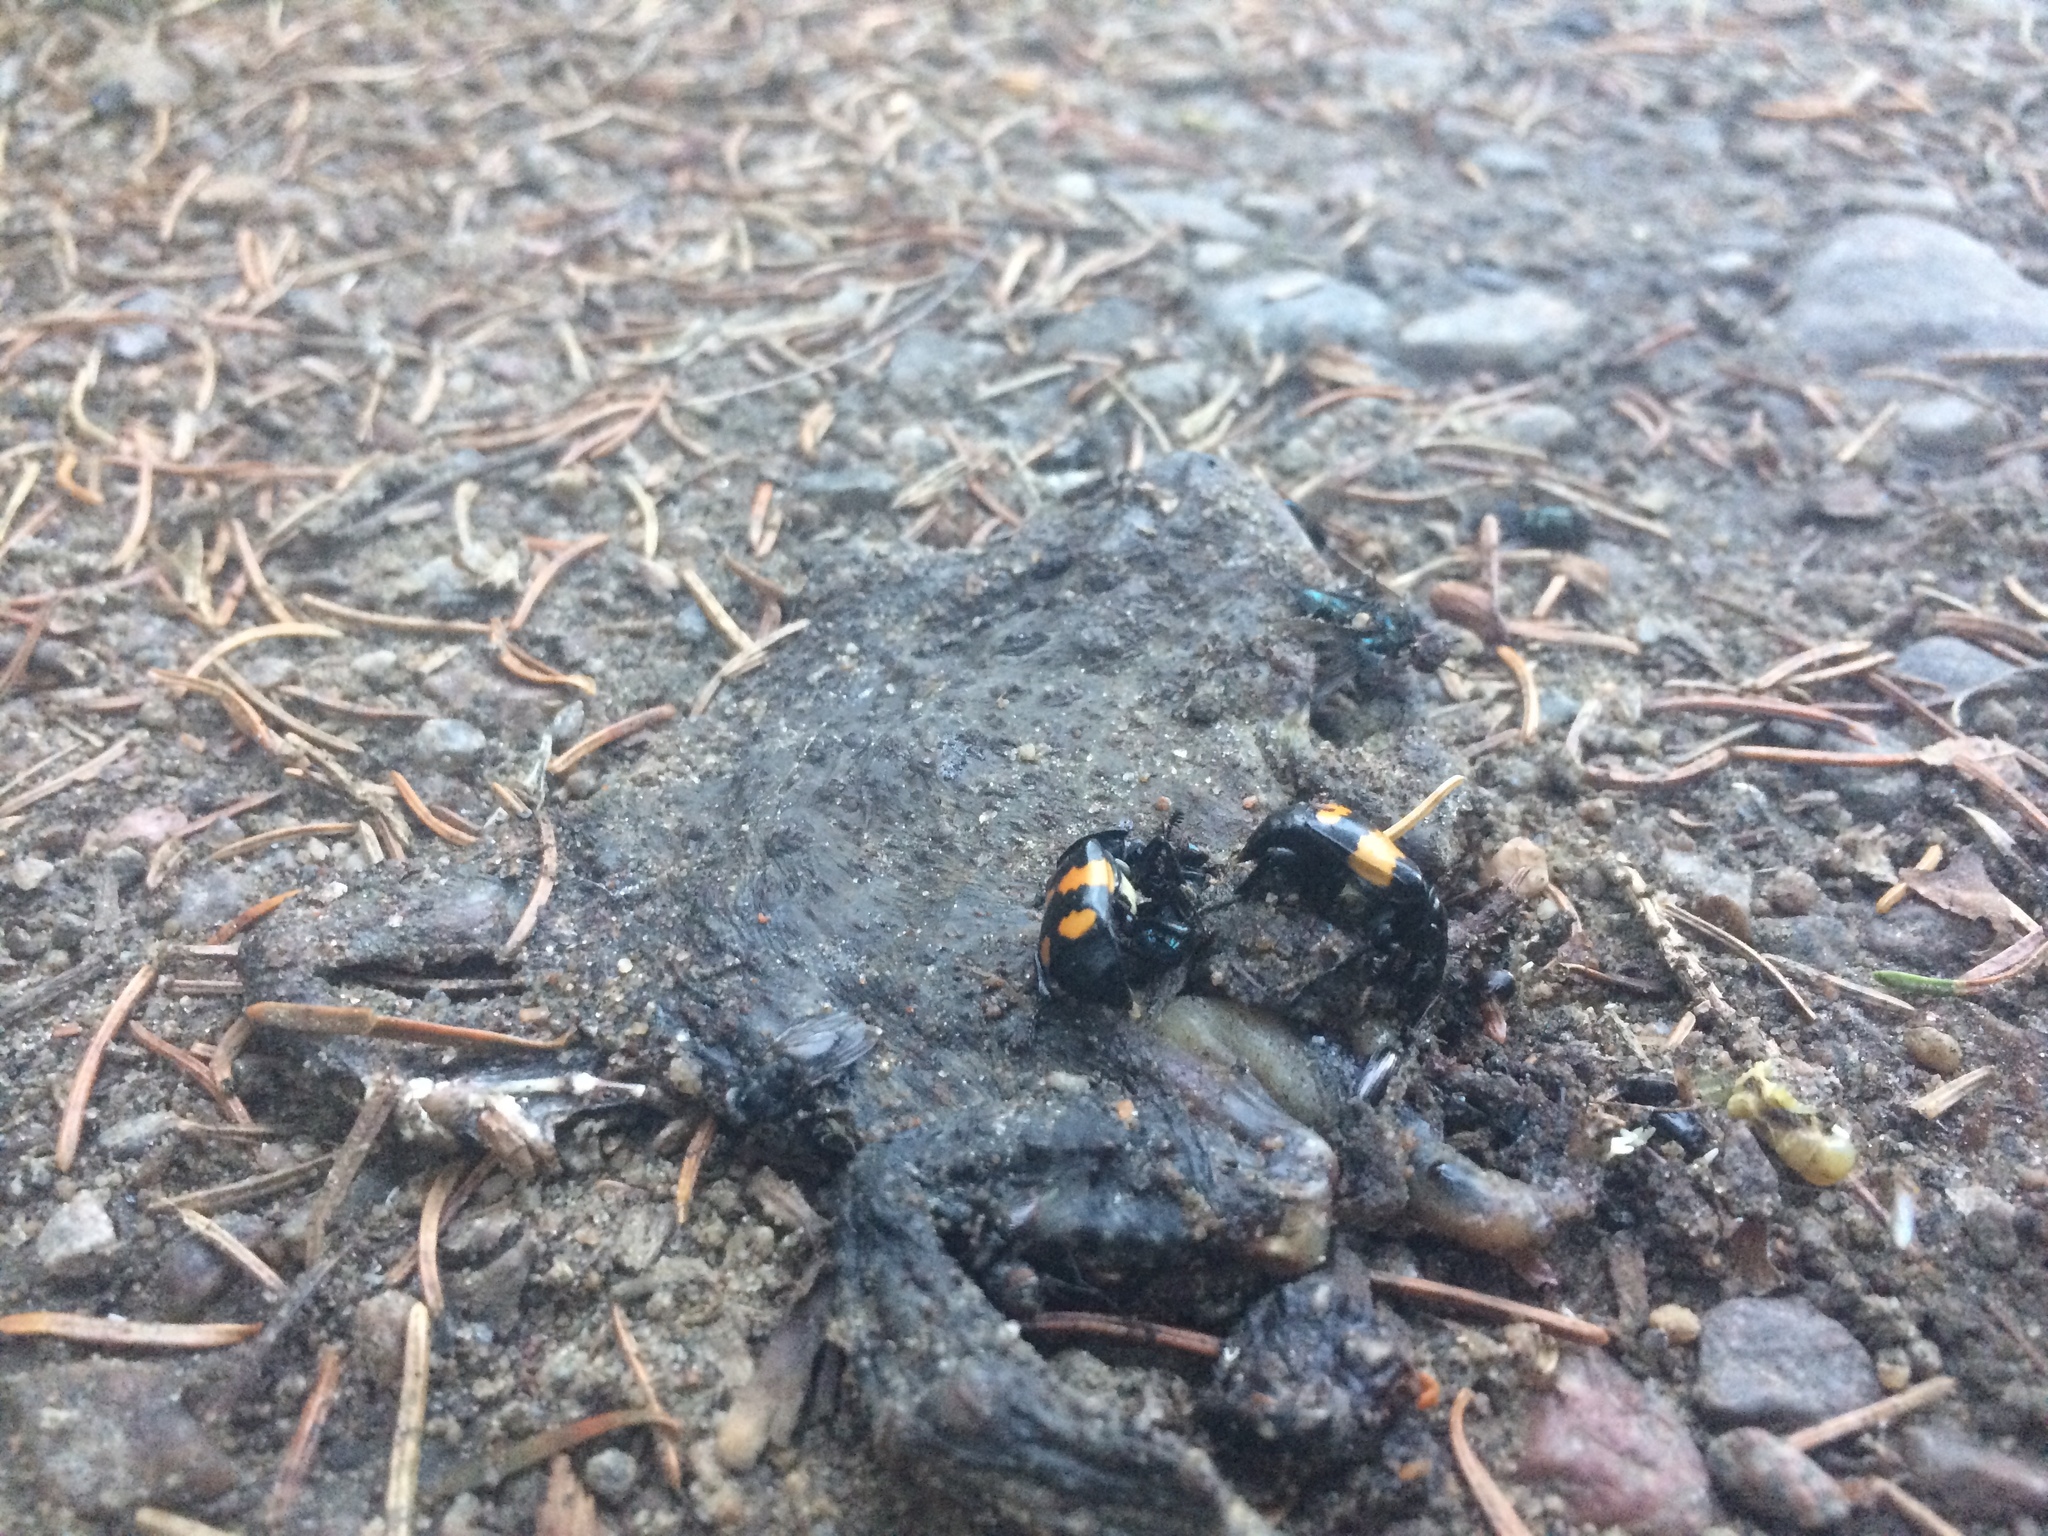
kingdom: Animalia
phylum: Arthropoda
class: Insecta
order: Coleoptera
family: Staphylinidae
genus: Nicrophorus
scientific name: Nicrophorus defodiens
